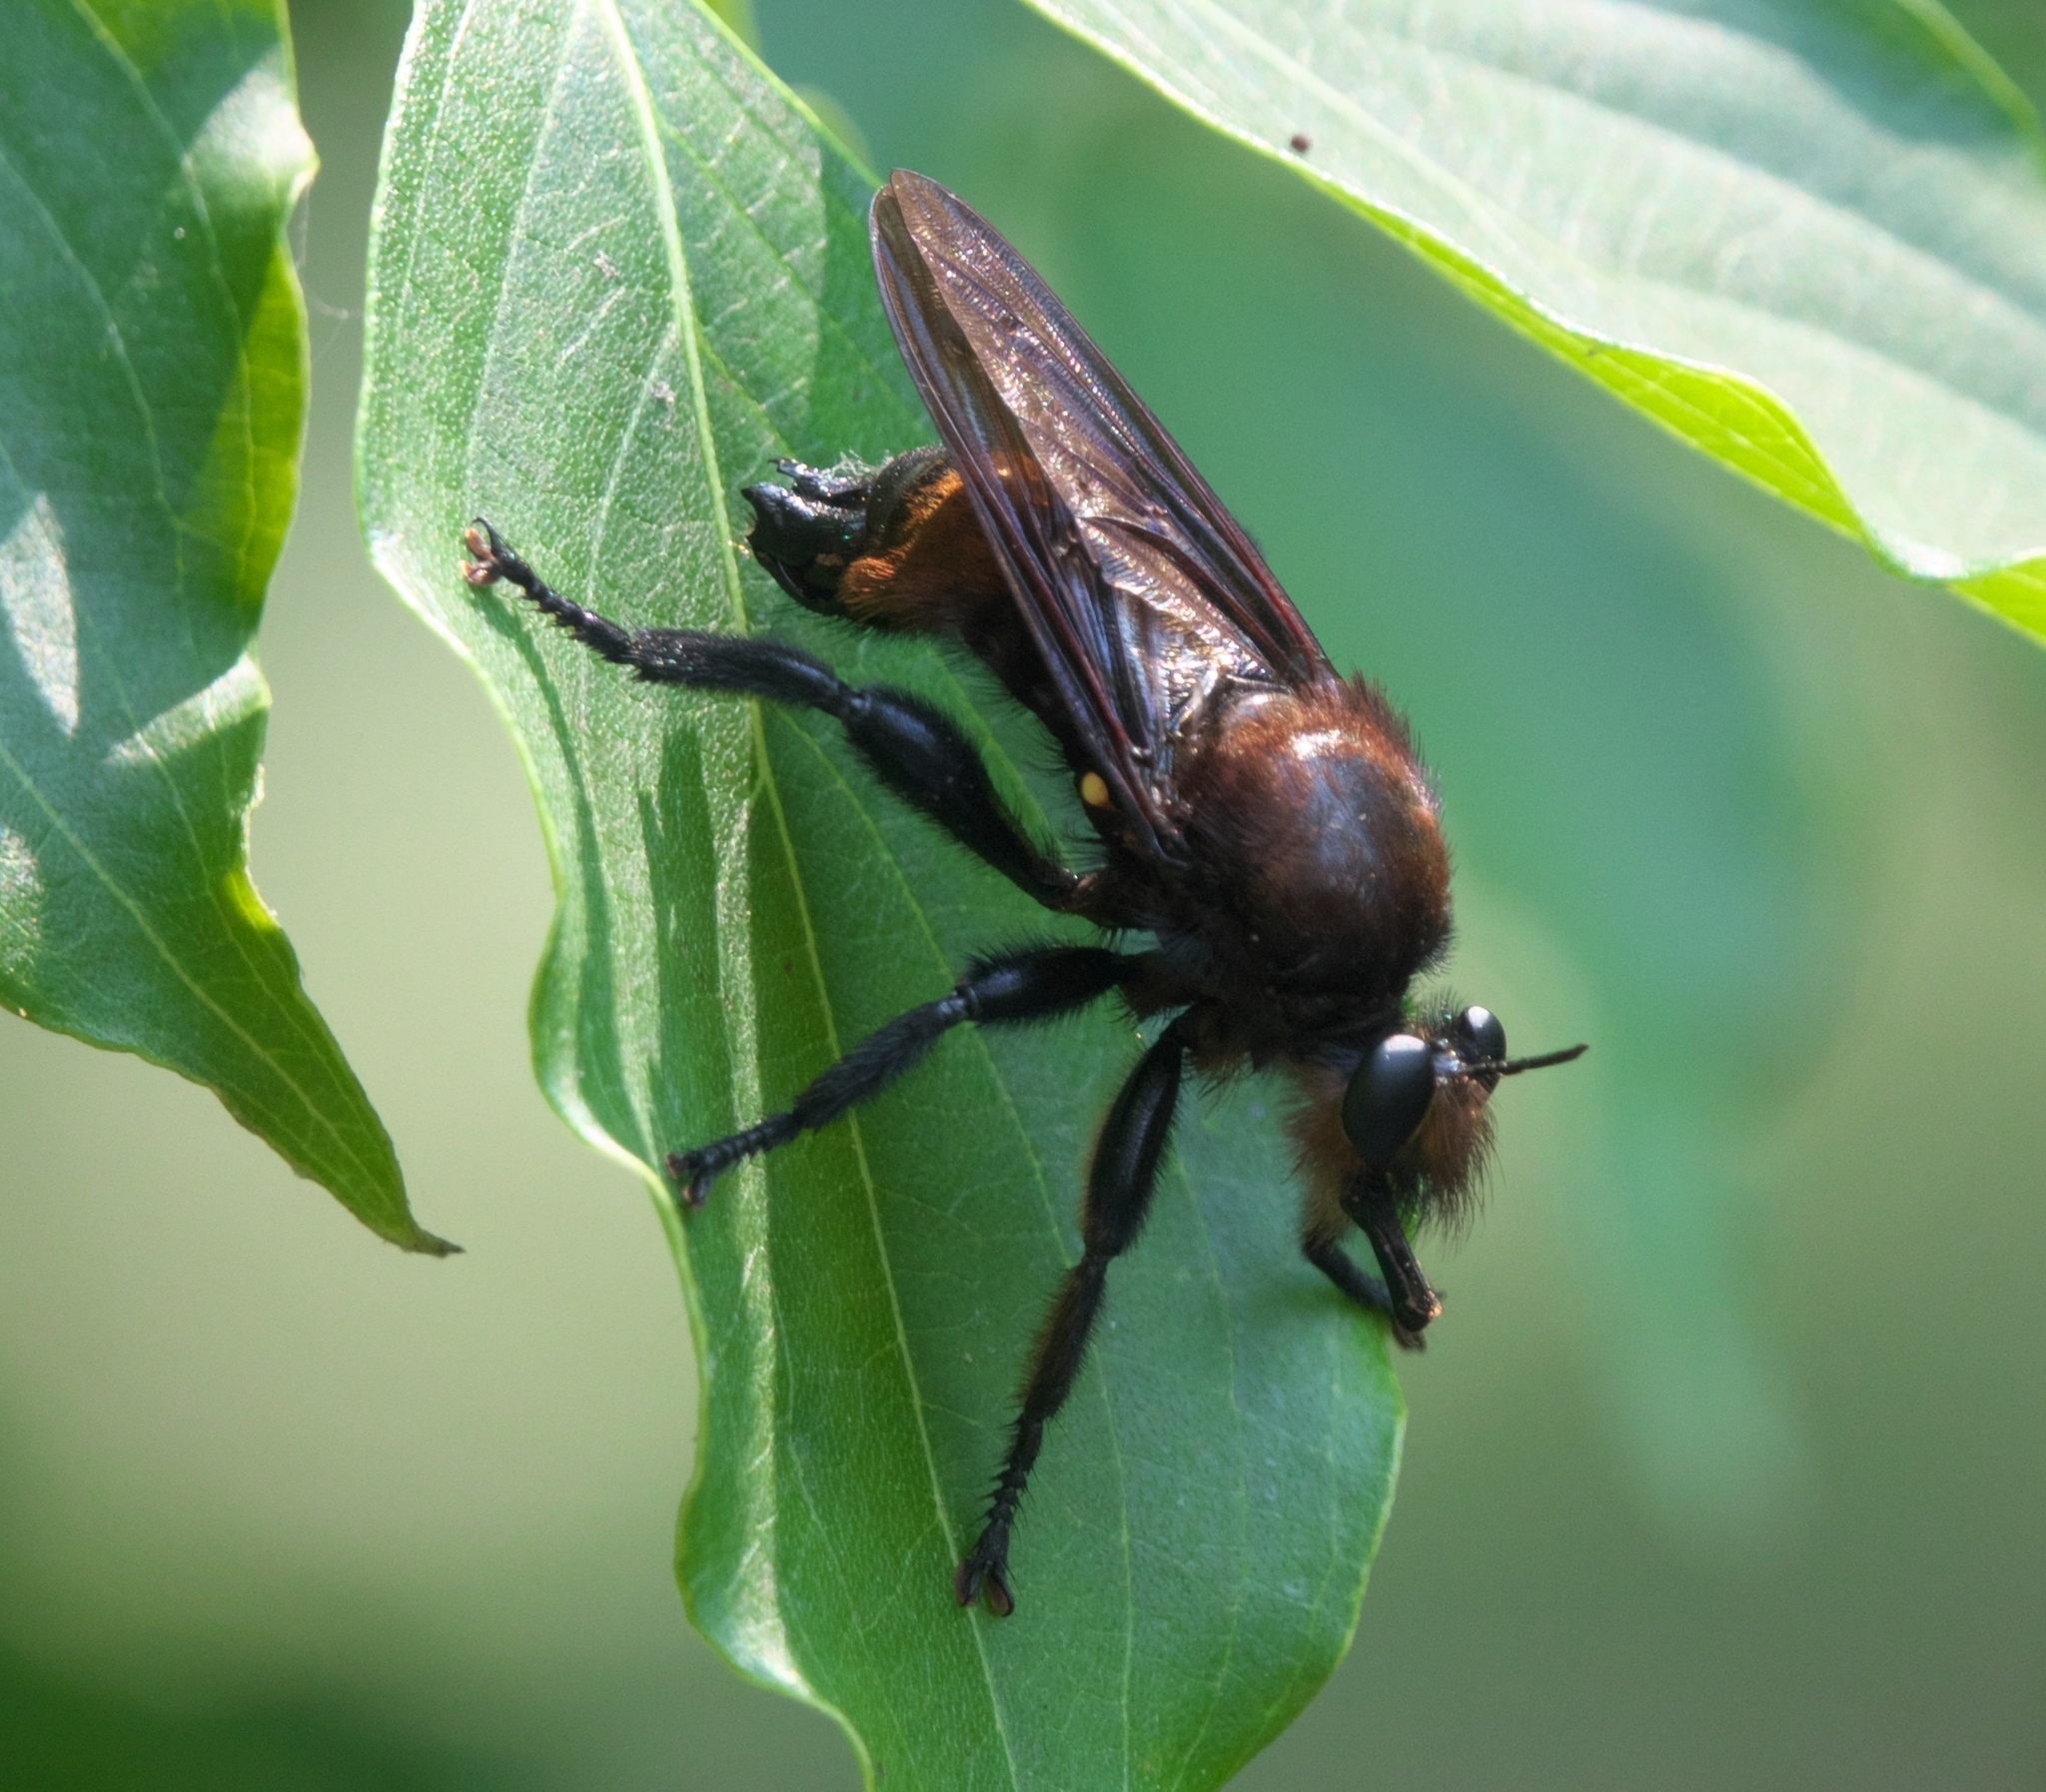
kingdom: Animalia
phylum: Arthropoda
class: Insecta
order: Diptera
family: Asilidae
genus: Laphria
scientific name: Laphria lata
